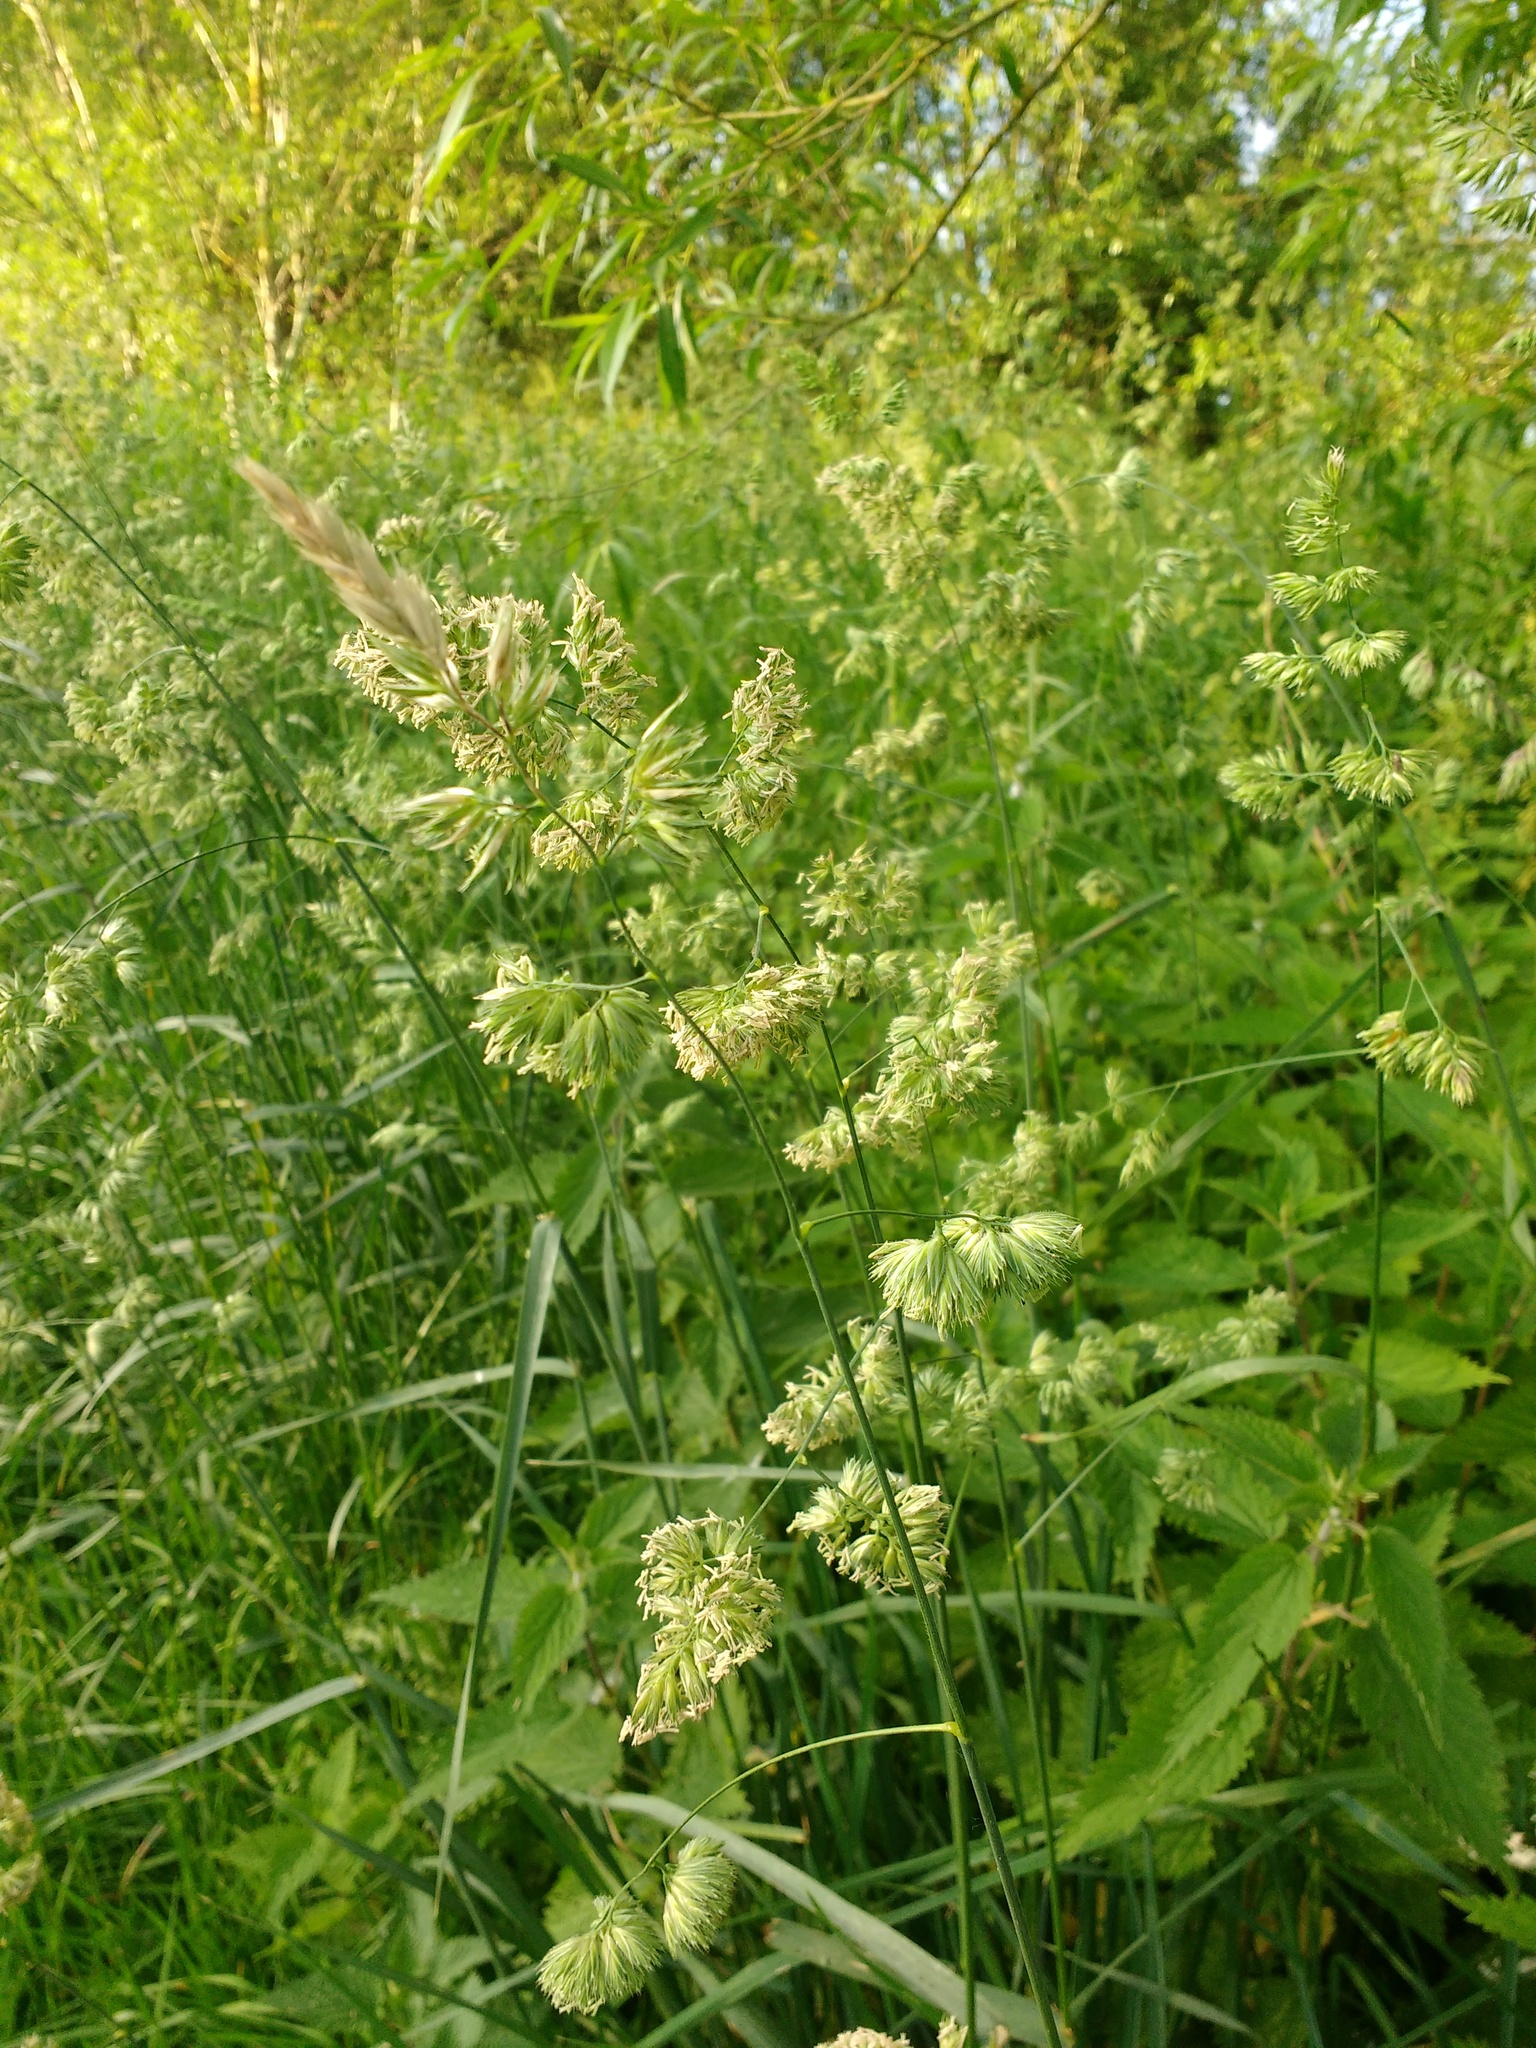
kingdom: Plantae
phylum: Tracheophyta
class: Liliopsida
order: Poales
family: Poaceae
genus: Dactylis
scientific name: Dactylis glomerata
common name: Orchardgrass
